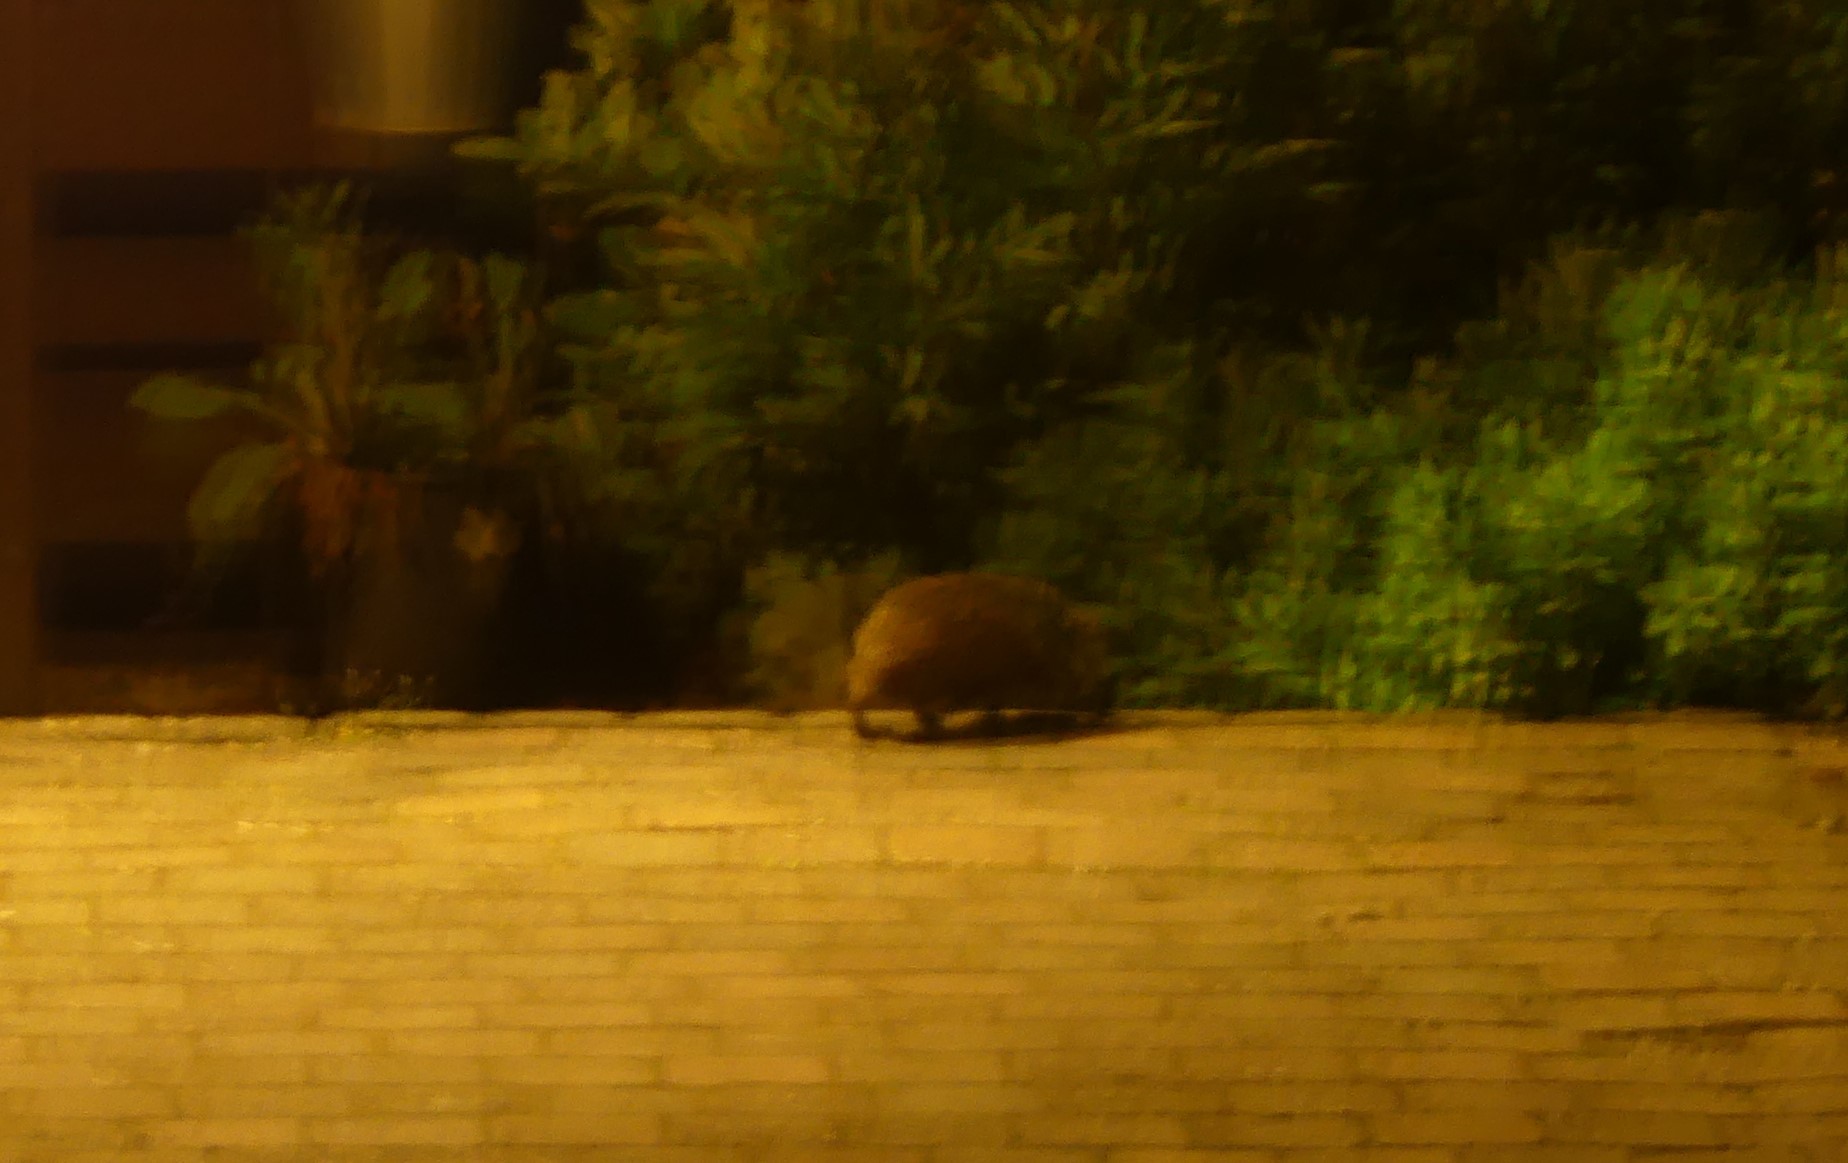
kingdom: Animalia
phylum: Chordata
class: Mammalia
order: Erinaceomorpha
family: Erinaceidae
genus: Erinaceus
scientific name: Erinaceus europaeus
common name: West european hedgehog
